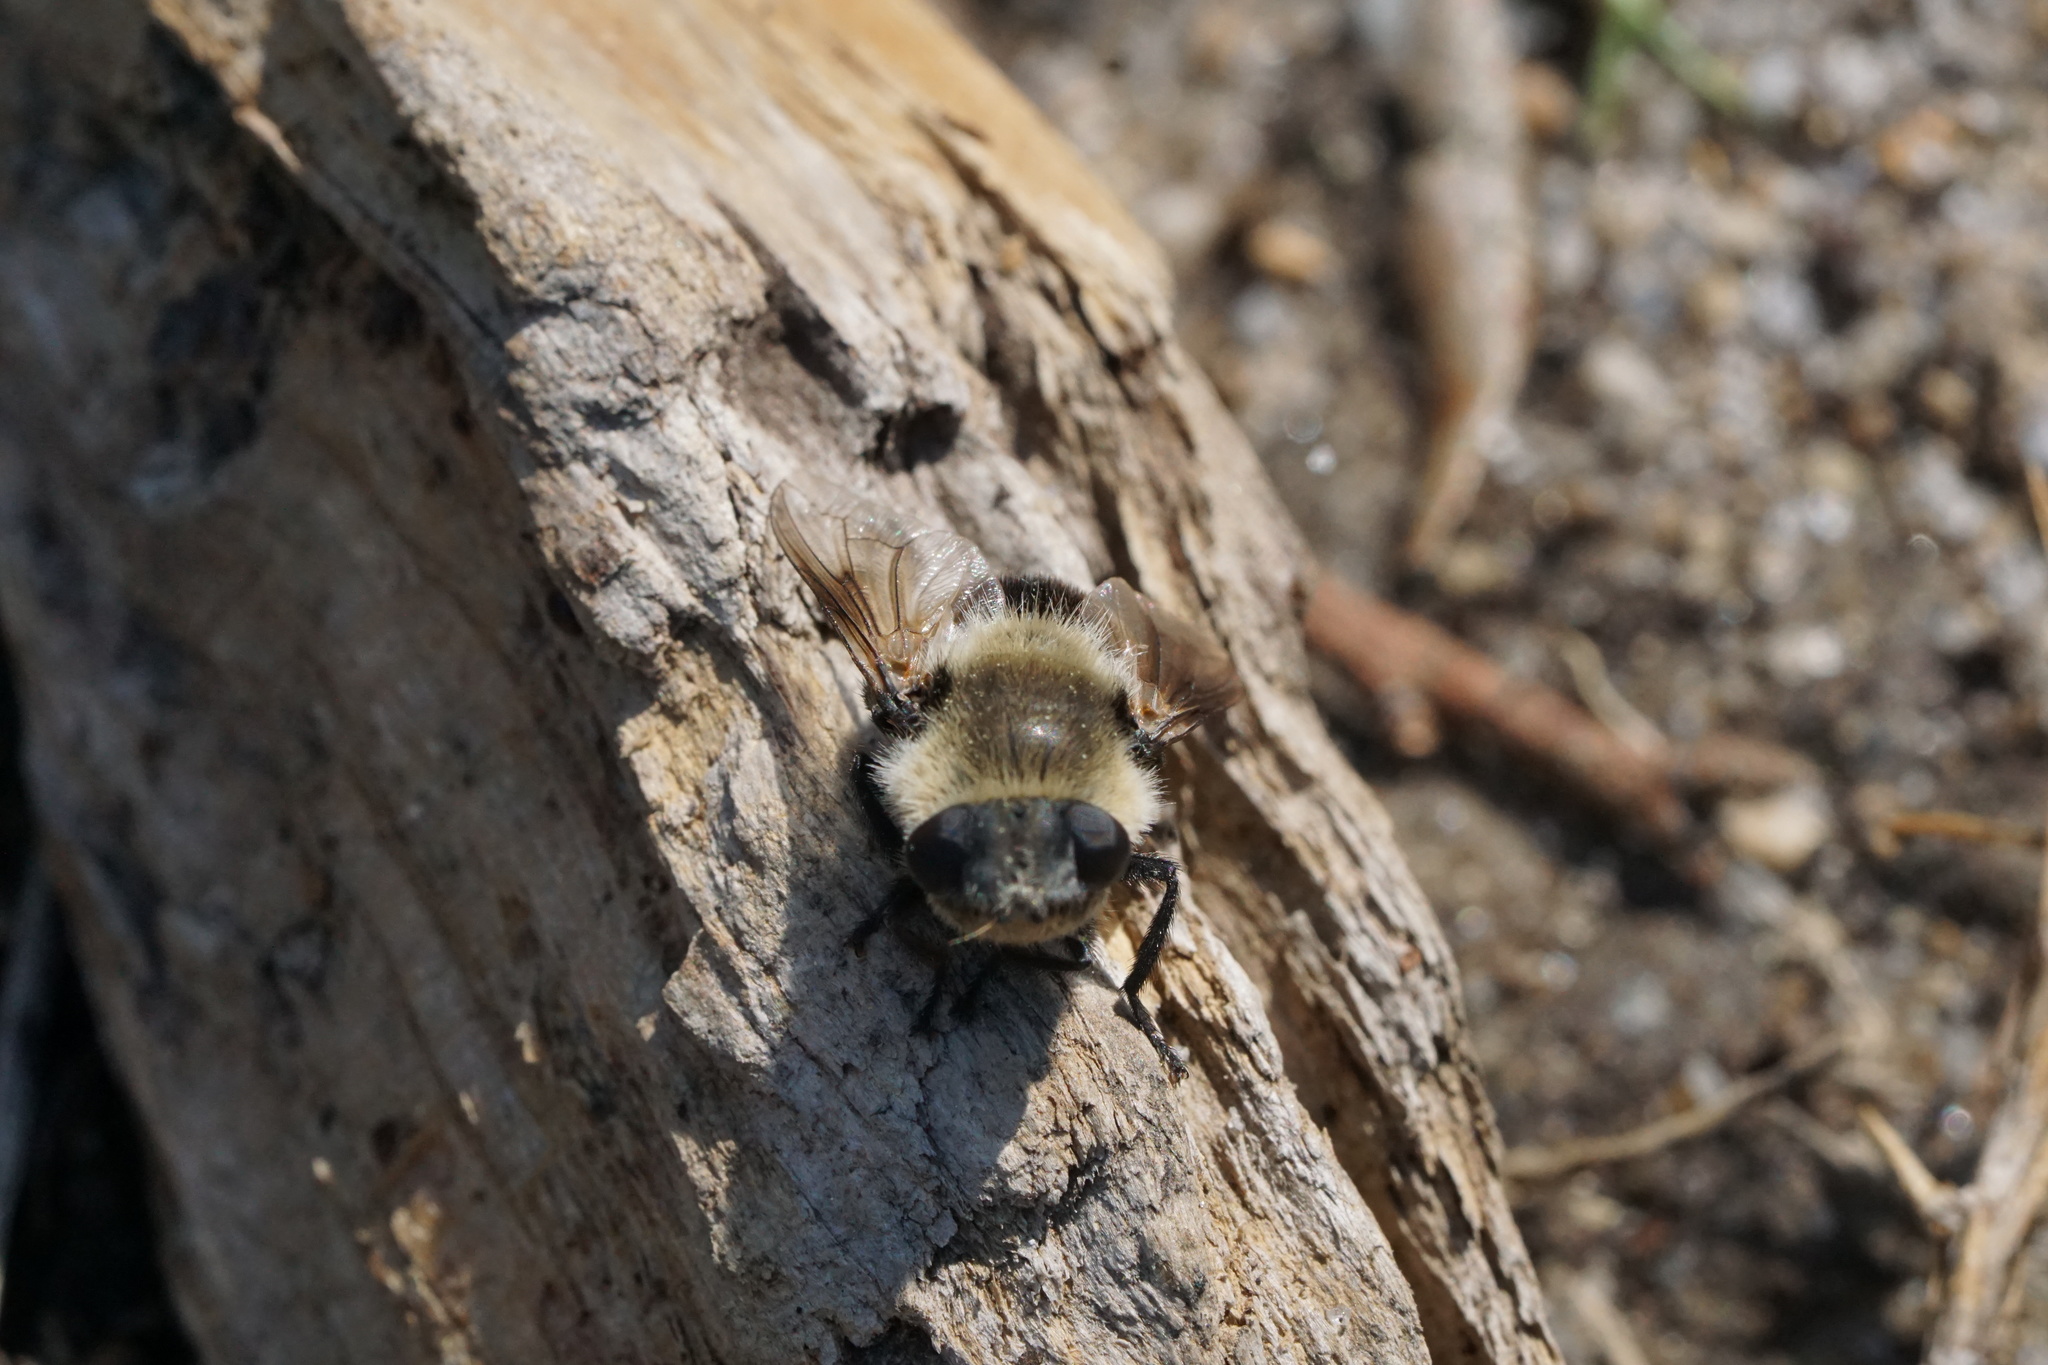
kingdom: Animalia
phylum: Arthropoda
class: Insecta
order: Diptera
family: Oestridae
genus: Cephenemyia
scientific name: Cephenemyia phobifer
